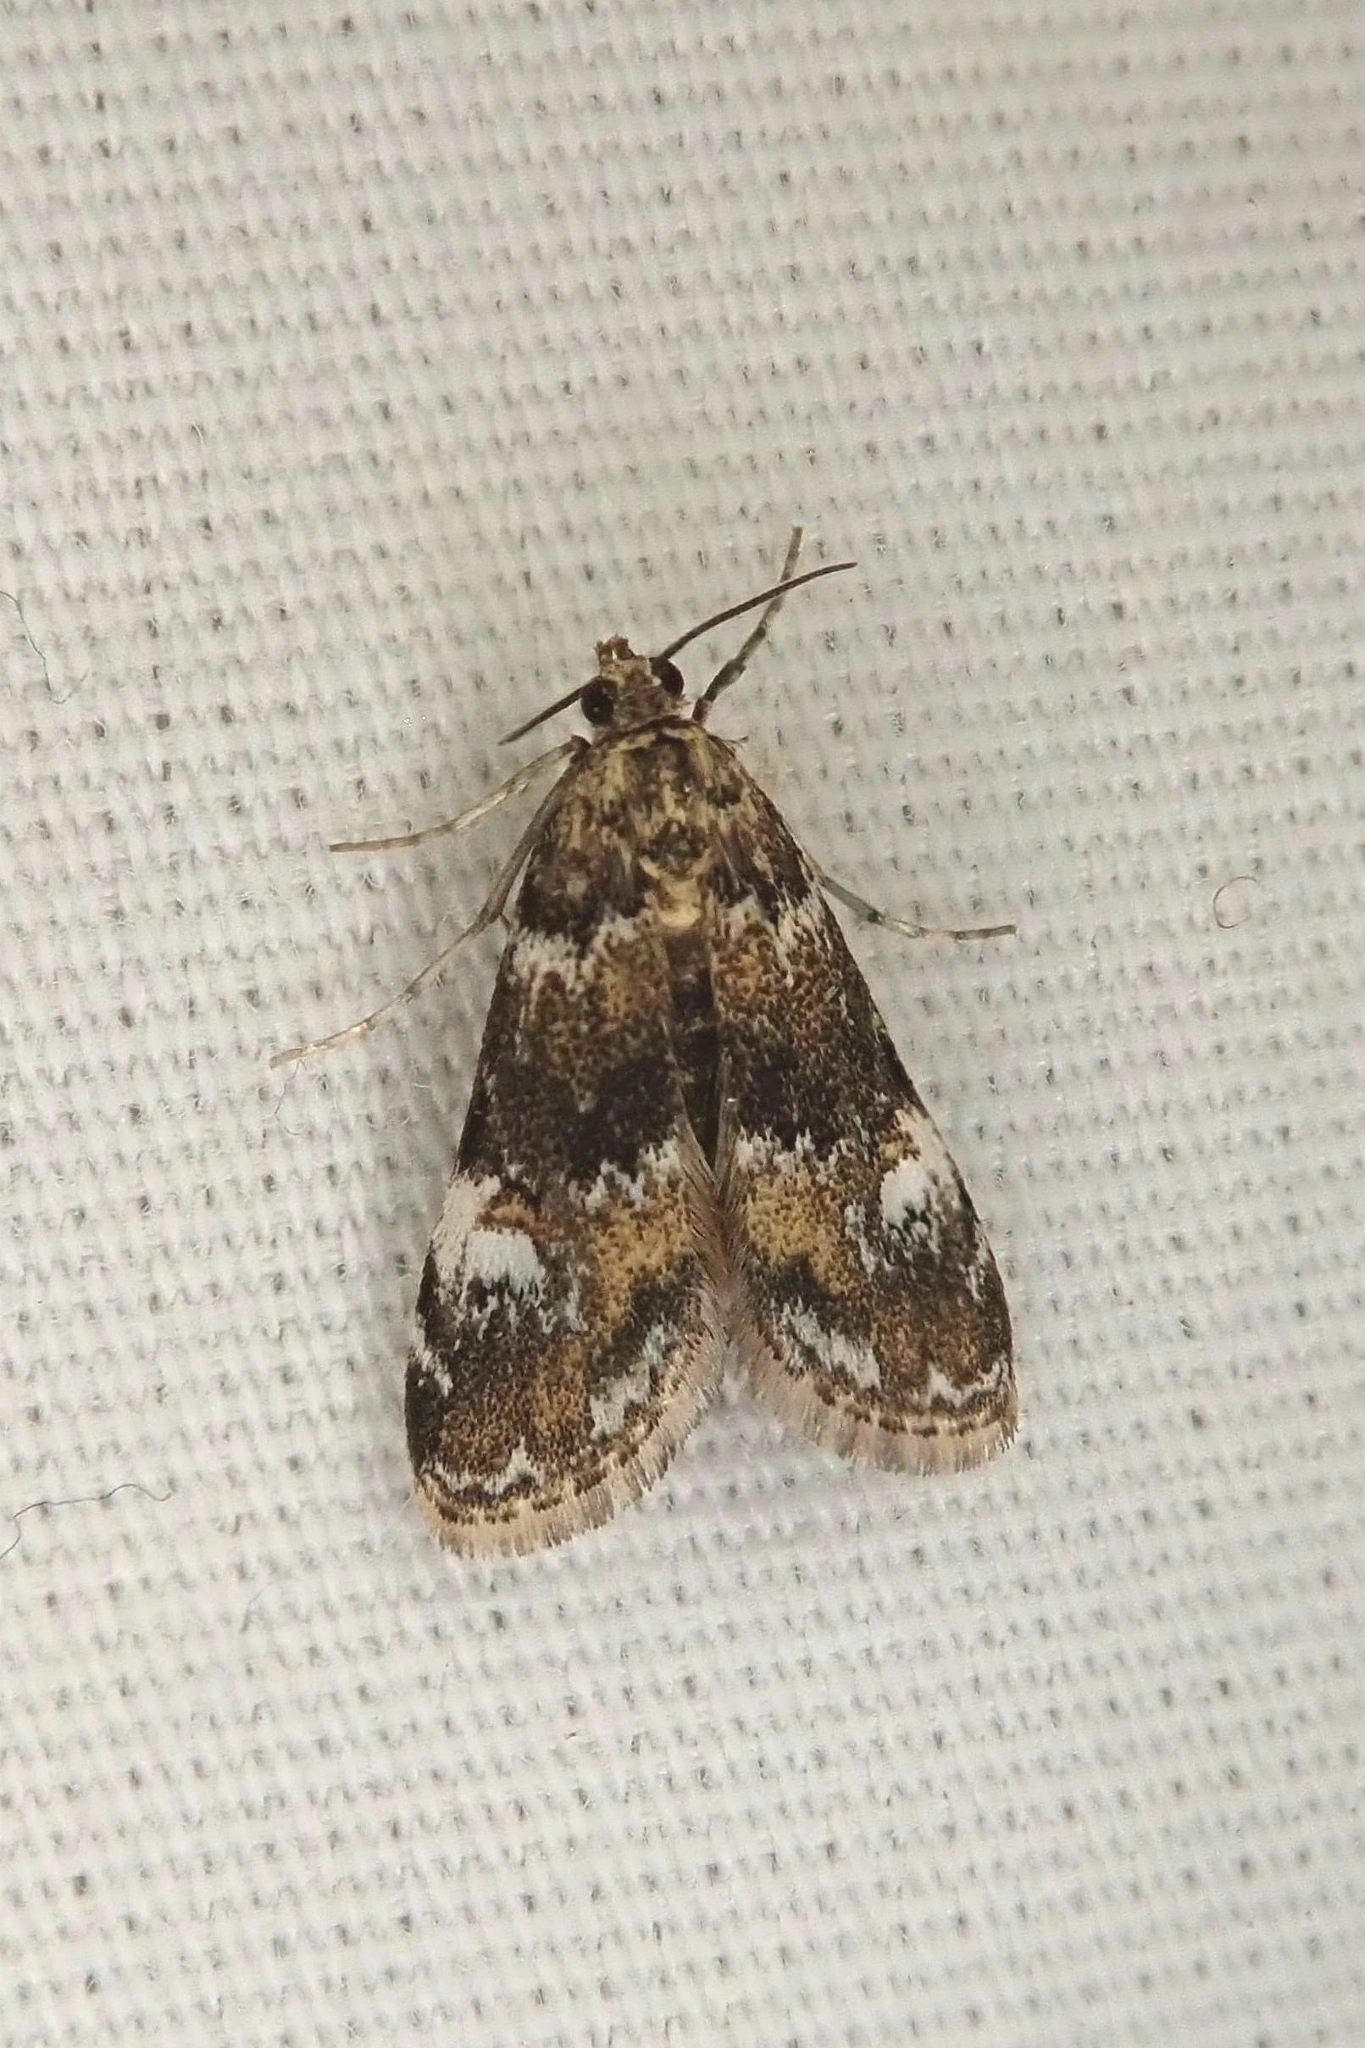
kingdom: Animalia
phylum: Arthropoda
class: Insecta
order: Lepidoptera
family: Crambidae
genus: Elophila
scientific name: Elophila obliteralis
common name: Waterlily leafcutter moth
